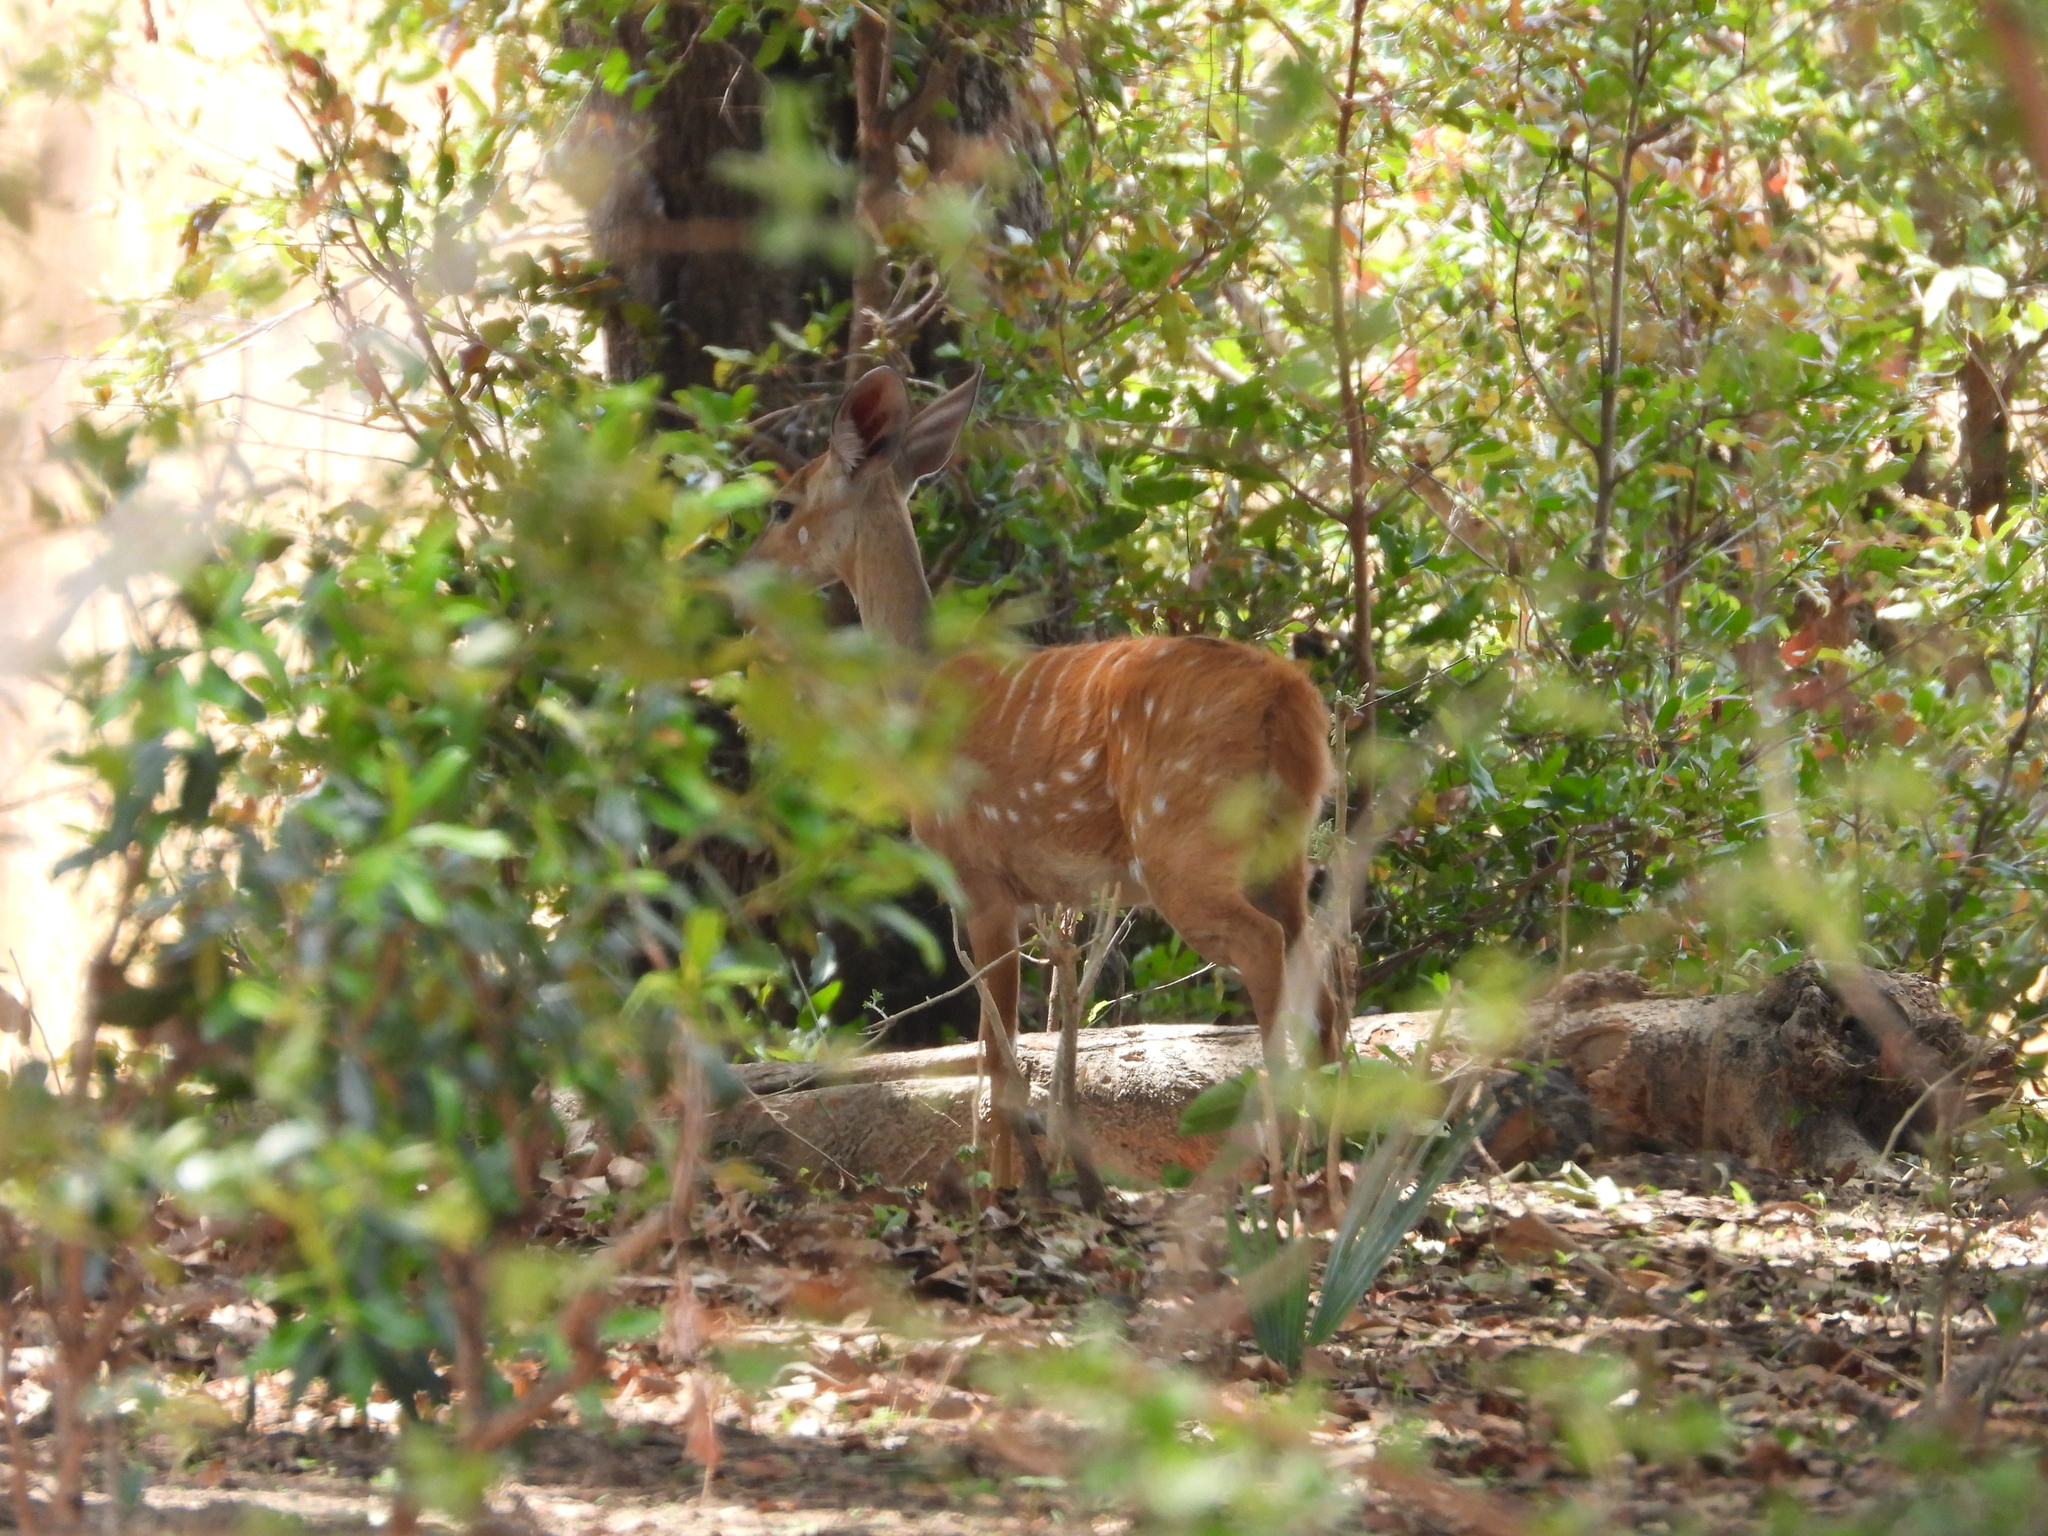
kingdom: Animalia
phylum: Chordata
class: Mammalia
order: Artiodactyla
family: Bovidae
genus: Tragelaphus
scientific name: Tragelaphus scriptus
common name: Bushbuck
